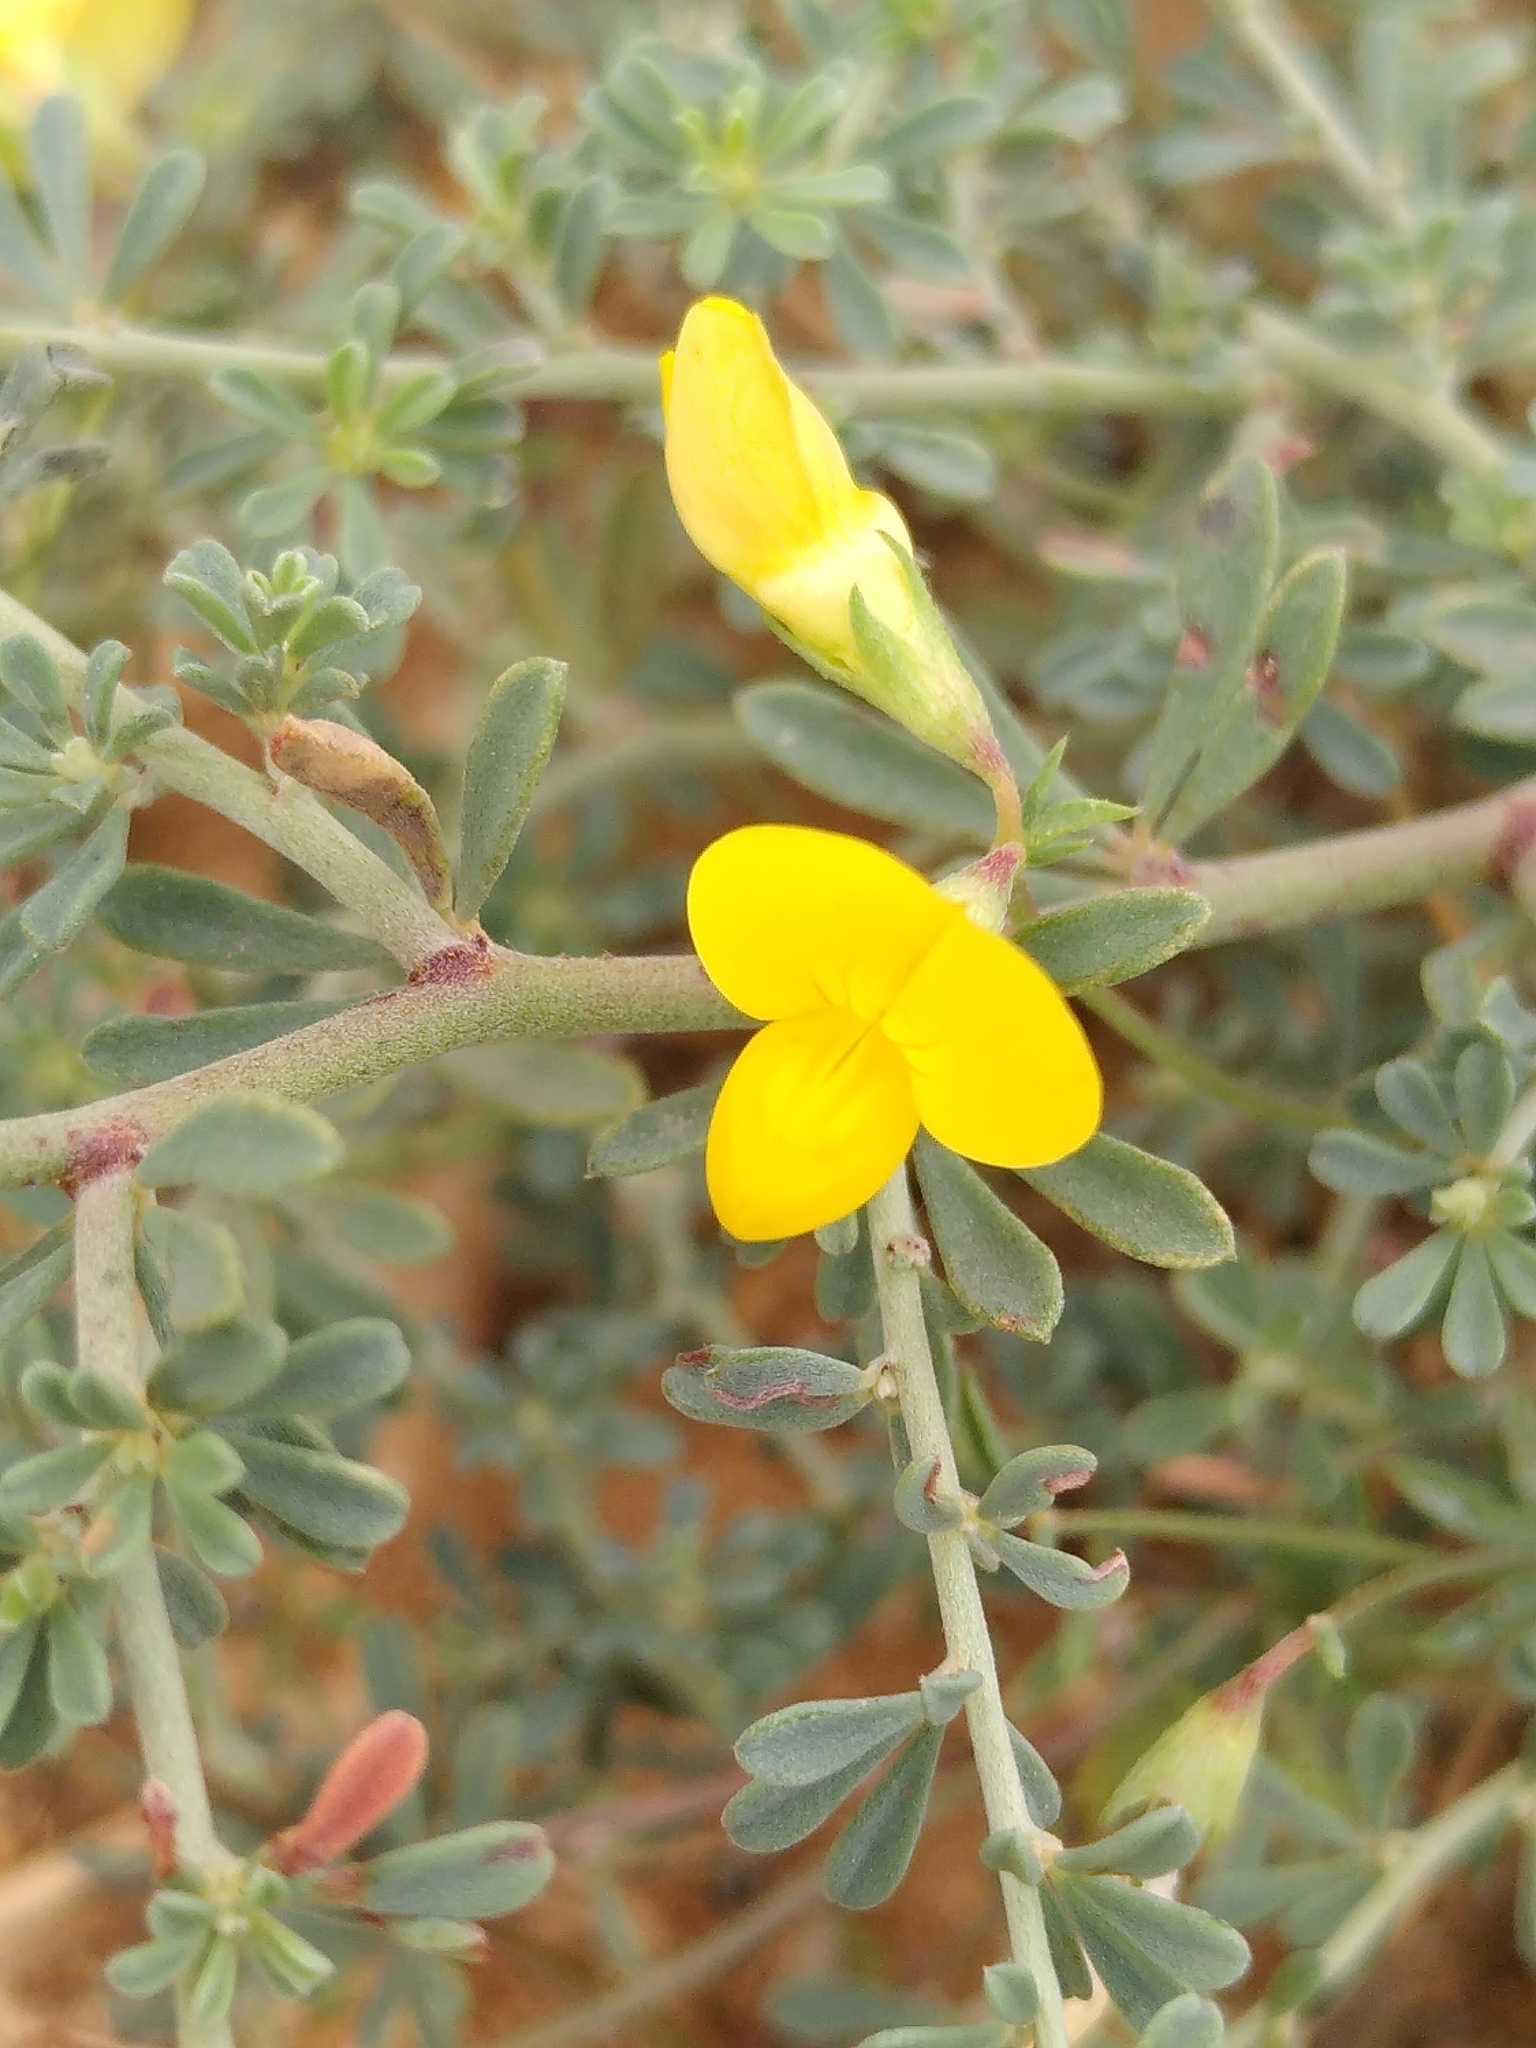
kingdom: Plantae
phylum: Tracheophyta
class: Magnoliopsida
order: Fabales
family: Fabaceae
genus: Lotus
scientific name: Lotus tenuis
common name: Narrow-leaved bird's-foot-trefoil
